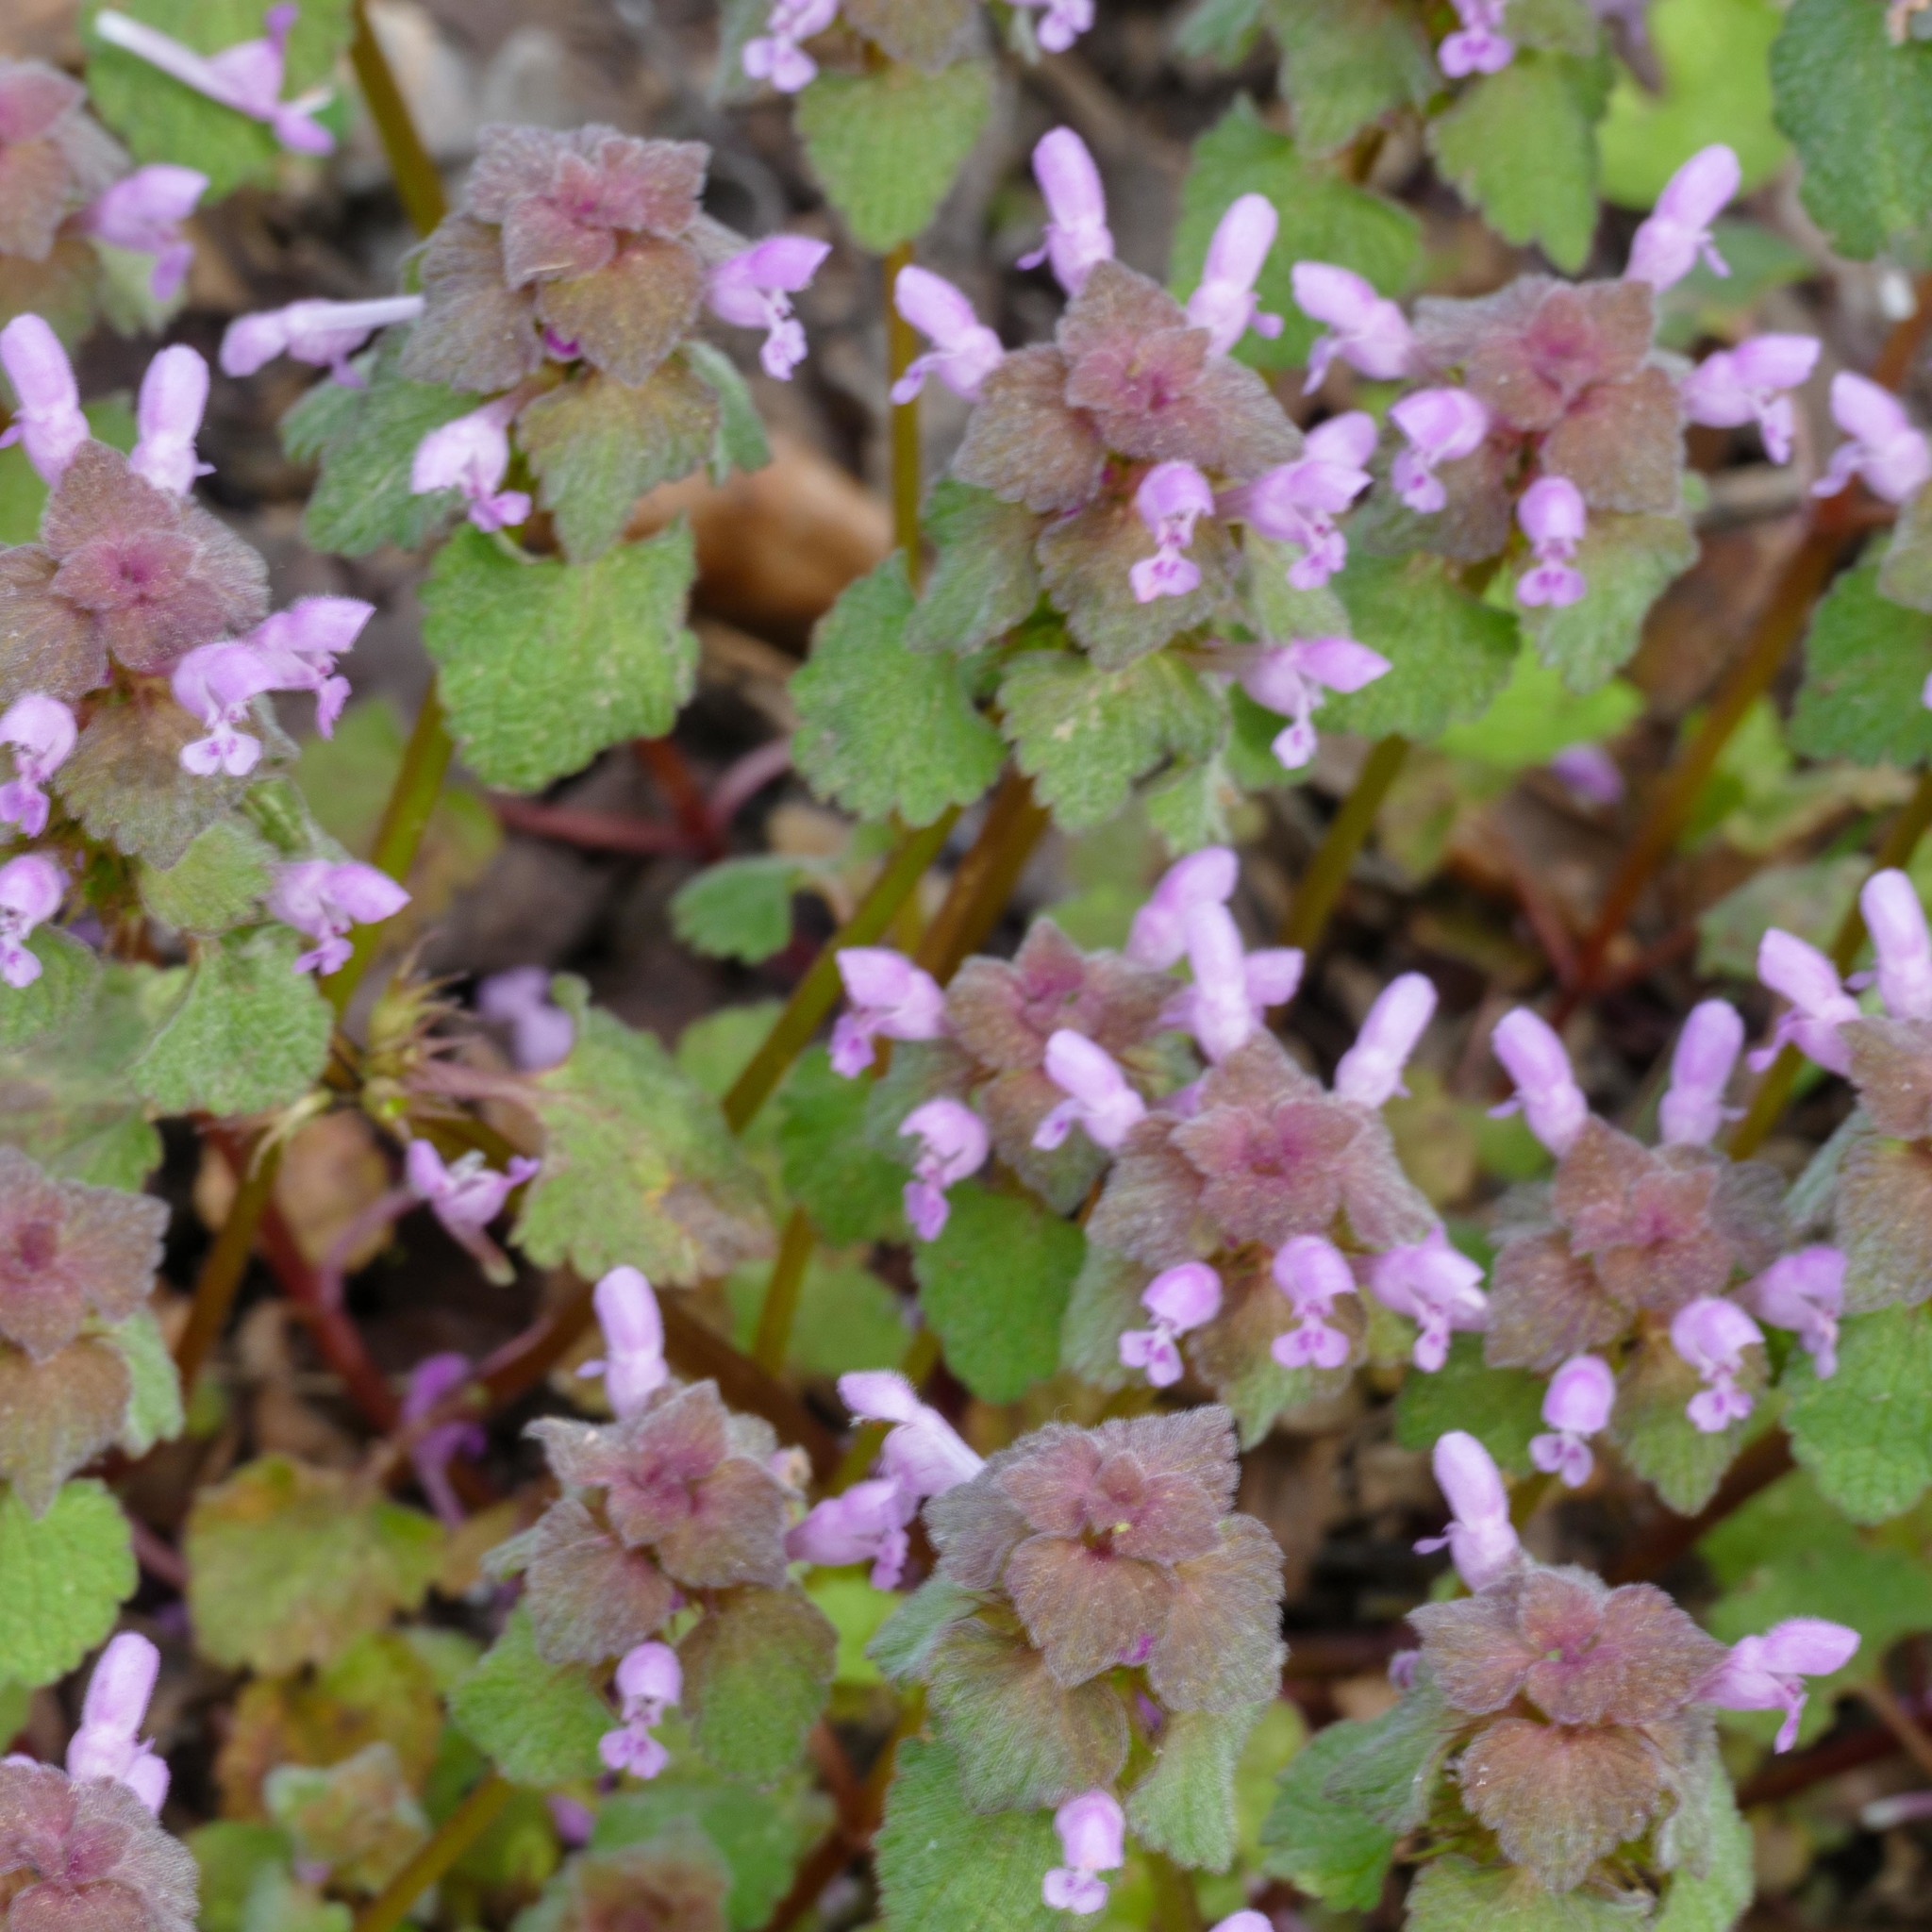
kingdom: Plantae
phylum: Tracheophyta
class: Magnoliopsida
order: Lamiales
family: Lamiaceae
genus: Lamium
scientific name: Lamium purpureum
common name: Red dead-nettle
